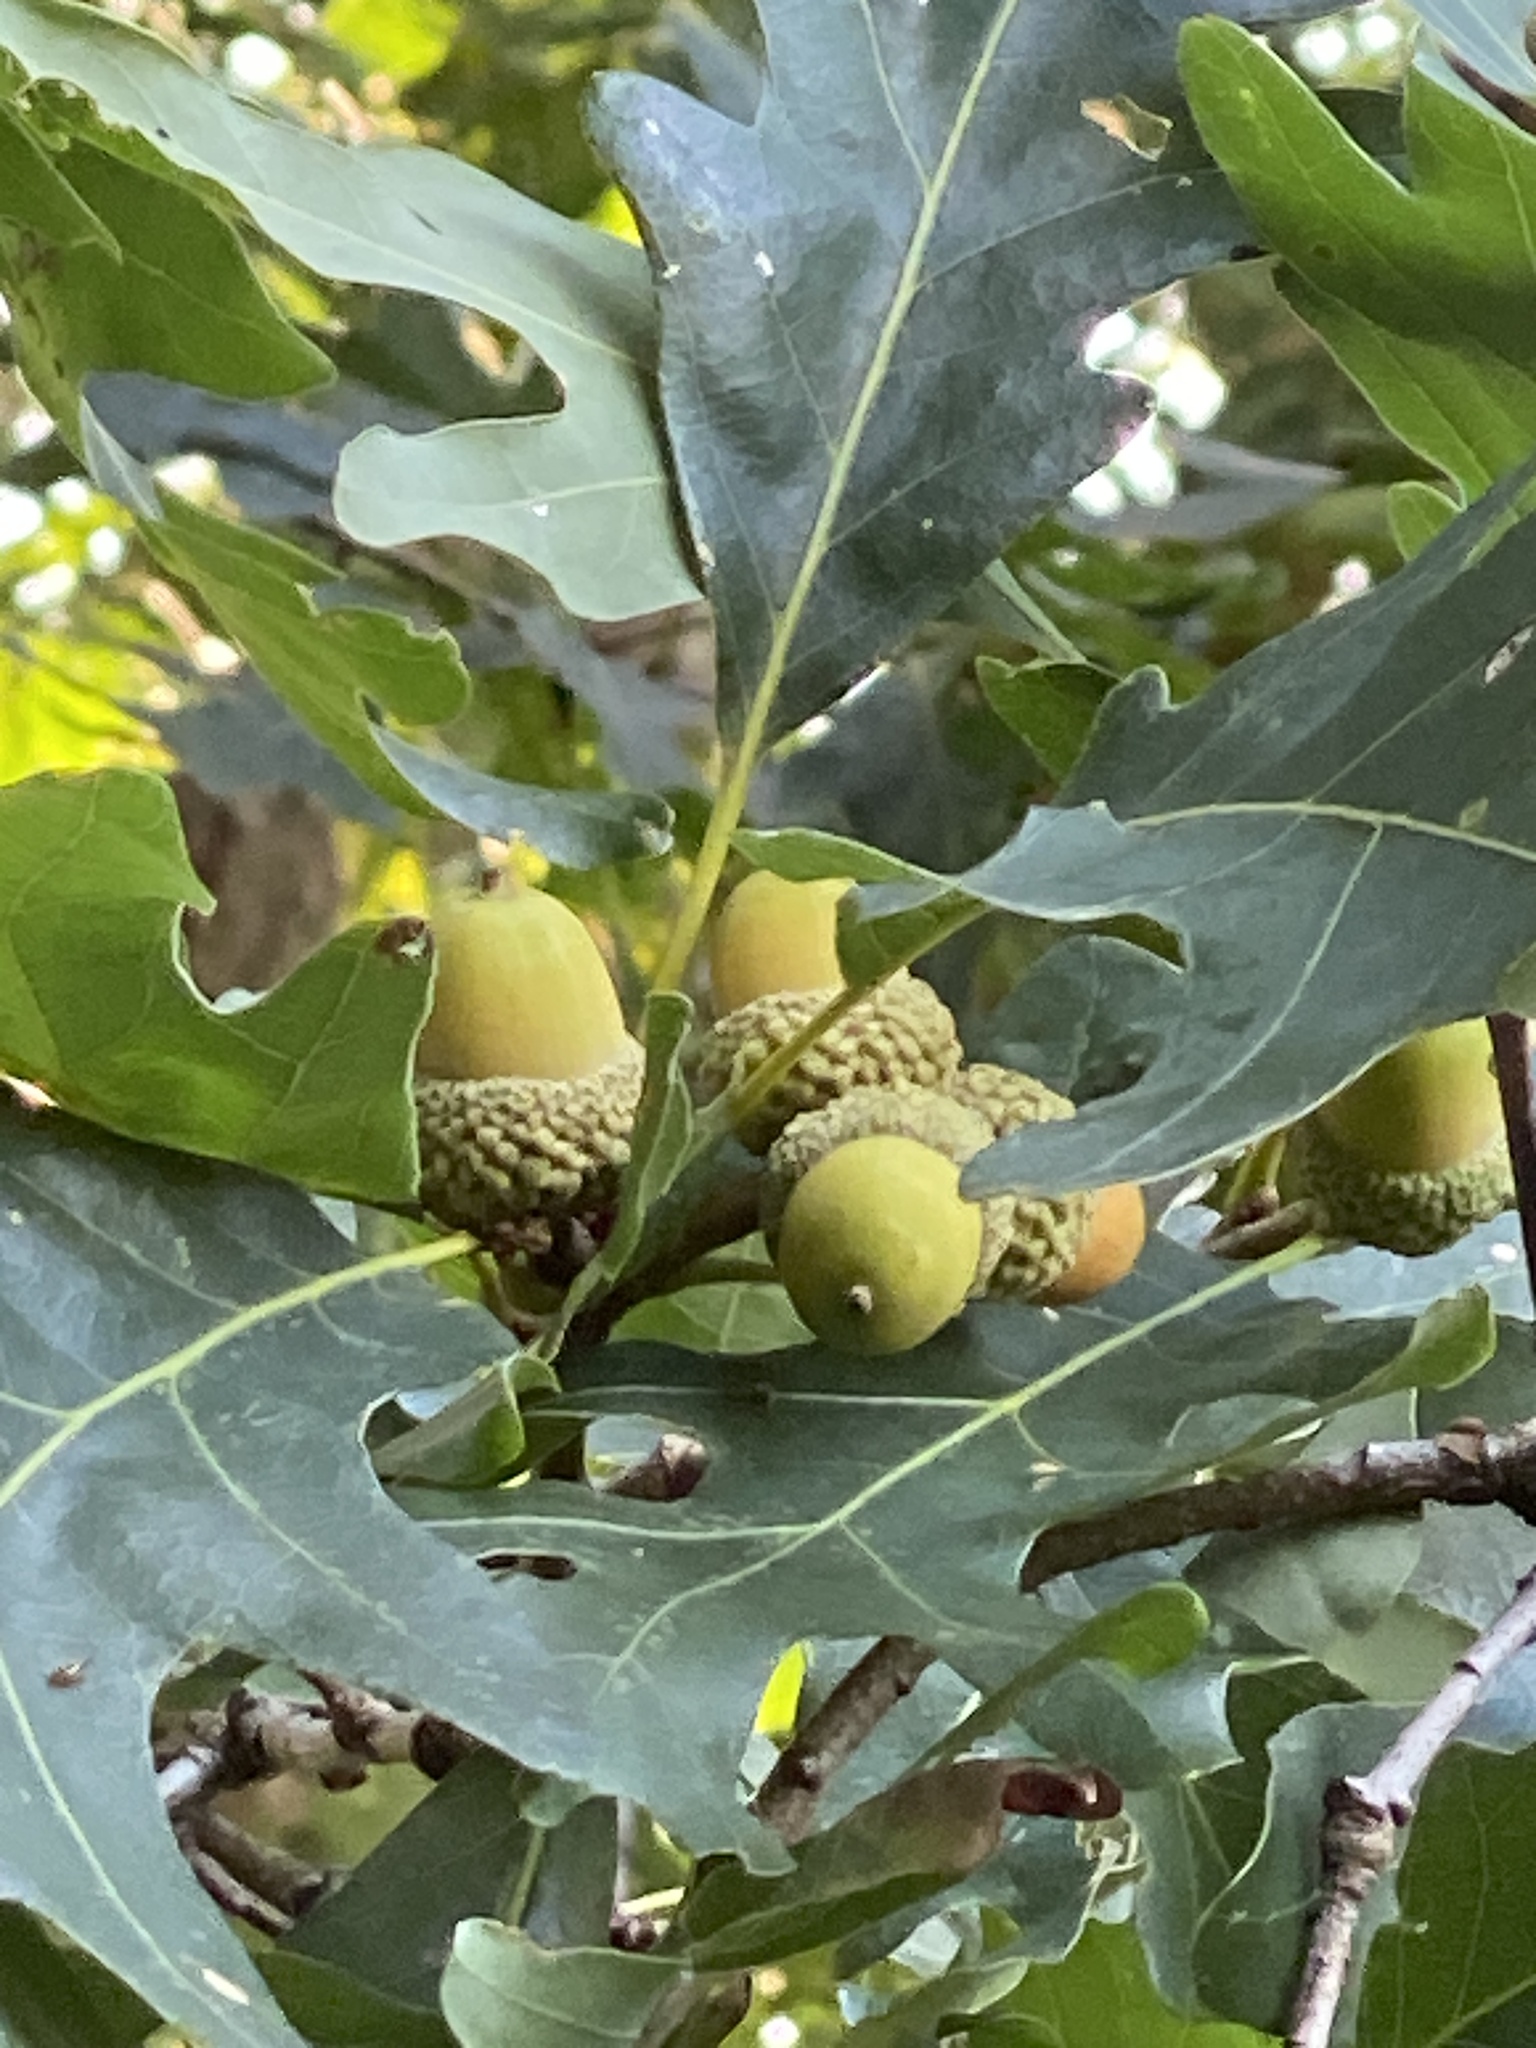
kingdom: Plantae
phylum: Tracheophyta
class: Magnoliopsida
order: Fagales
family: Fagaceae
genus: Quercus
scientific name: Quercus alba
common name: White oak
